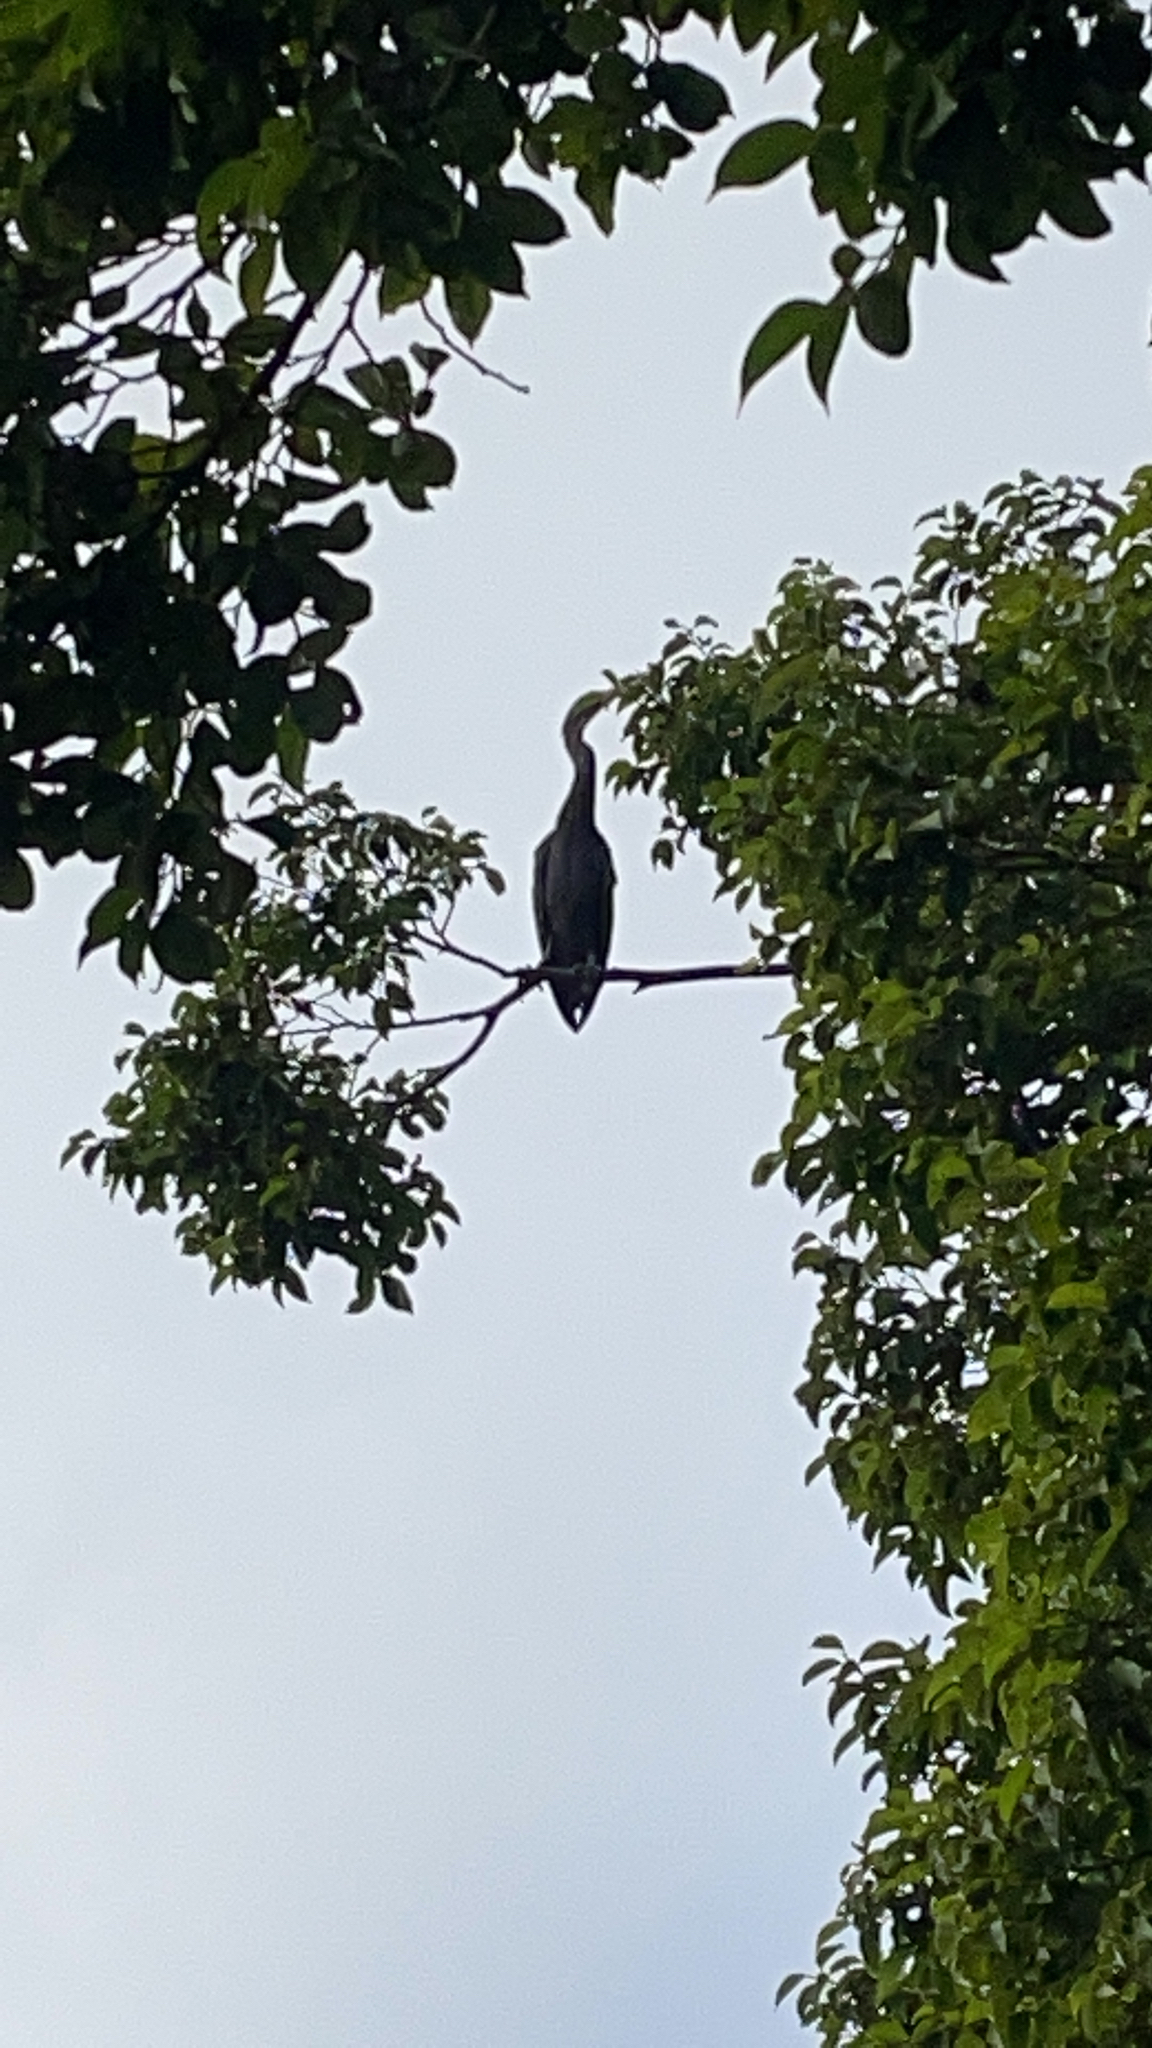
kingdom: Animalia
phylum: Chordata
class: Aves
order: Suliformes
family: Anhingidae
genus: Anhinga
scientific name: Anhinga novaehollandiae
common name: Australasian darter
